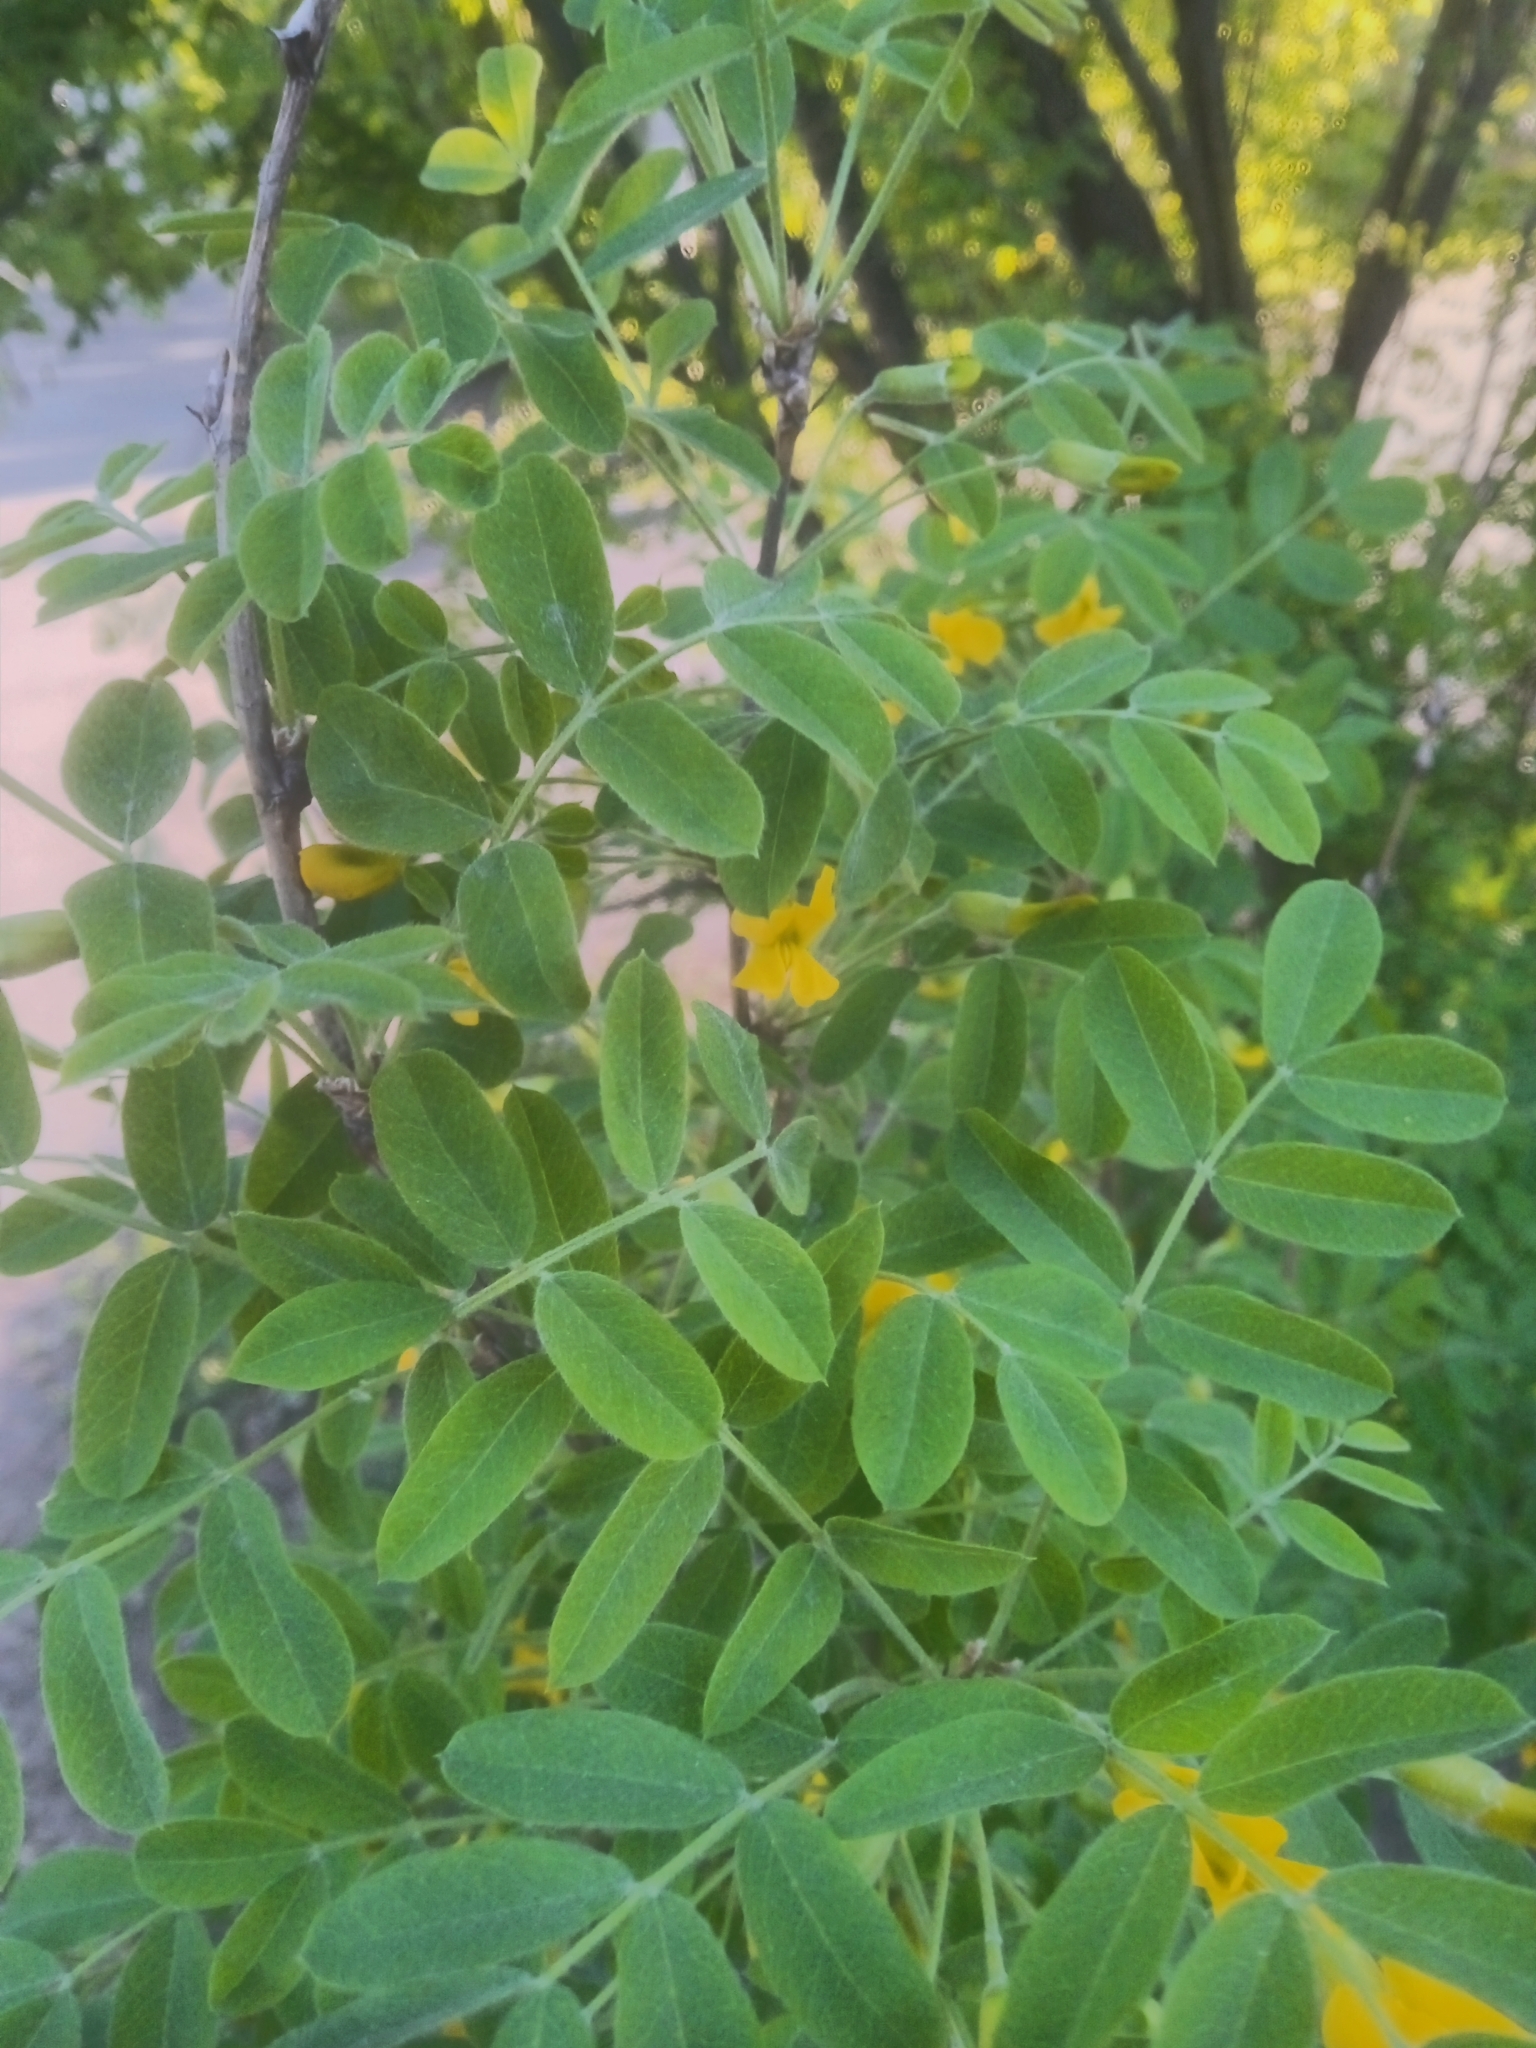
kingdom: Plantae
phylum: Tracheophyta
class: Magnoliopsida
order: Fabales
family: Fabaceae
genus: Caragana
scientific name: Caragana arborescens
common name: Siberian peashrub
